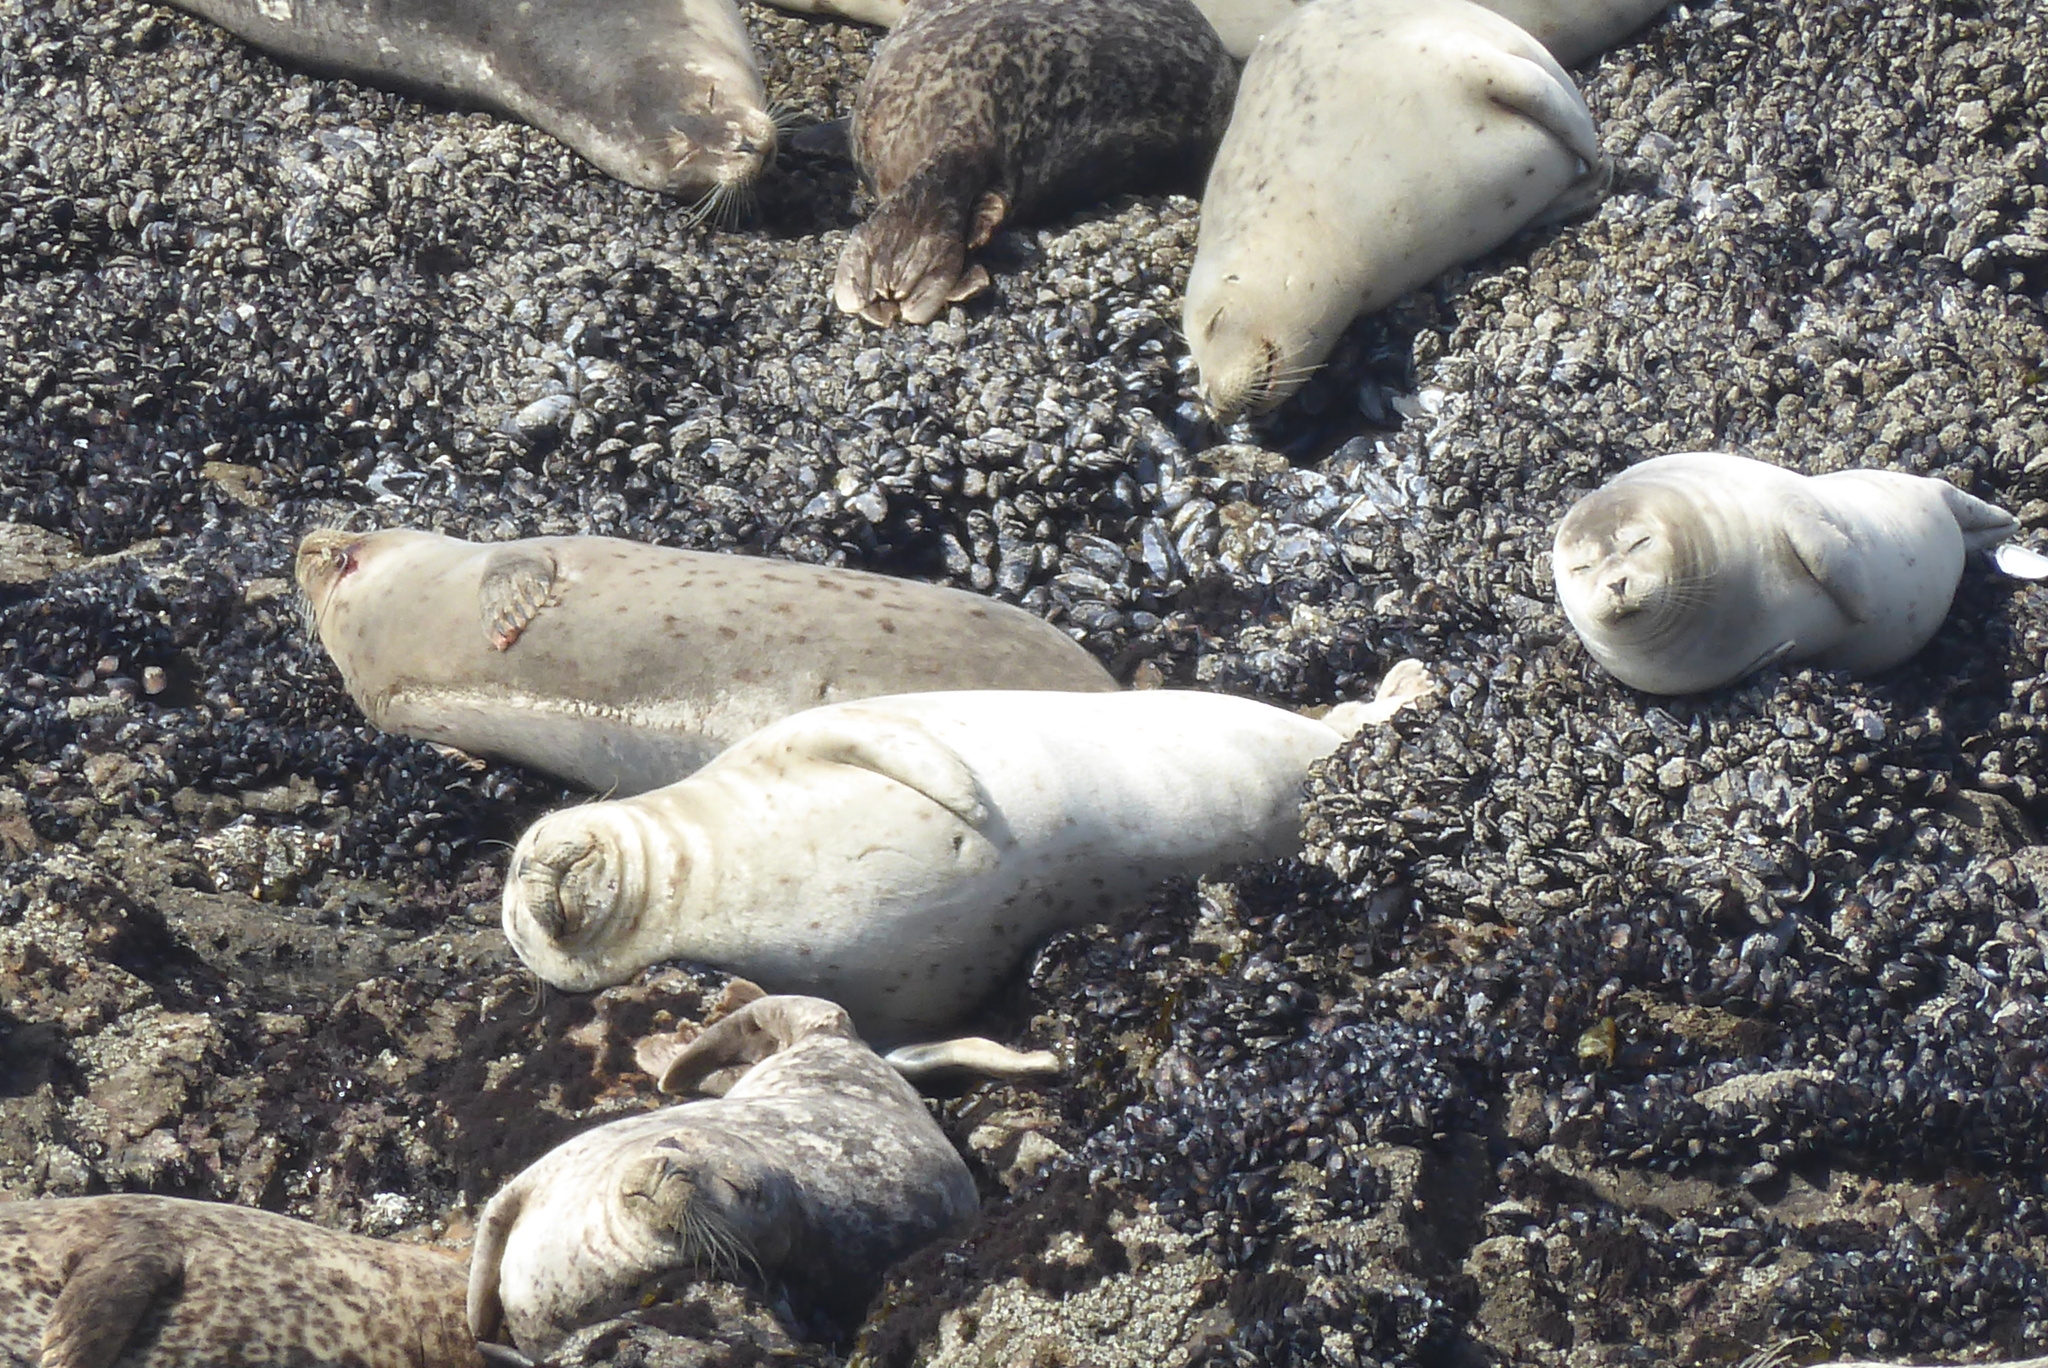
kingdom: Animalia
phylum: Chordata
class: Mammalia
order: Carnivora
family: Phocidae
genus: Phoca
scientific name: Phoca vitulina
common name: Harbor seal
